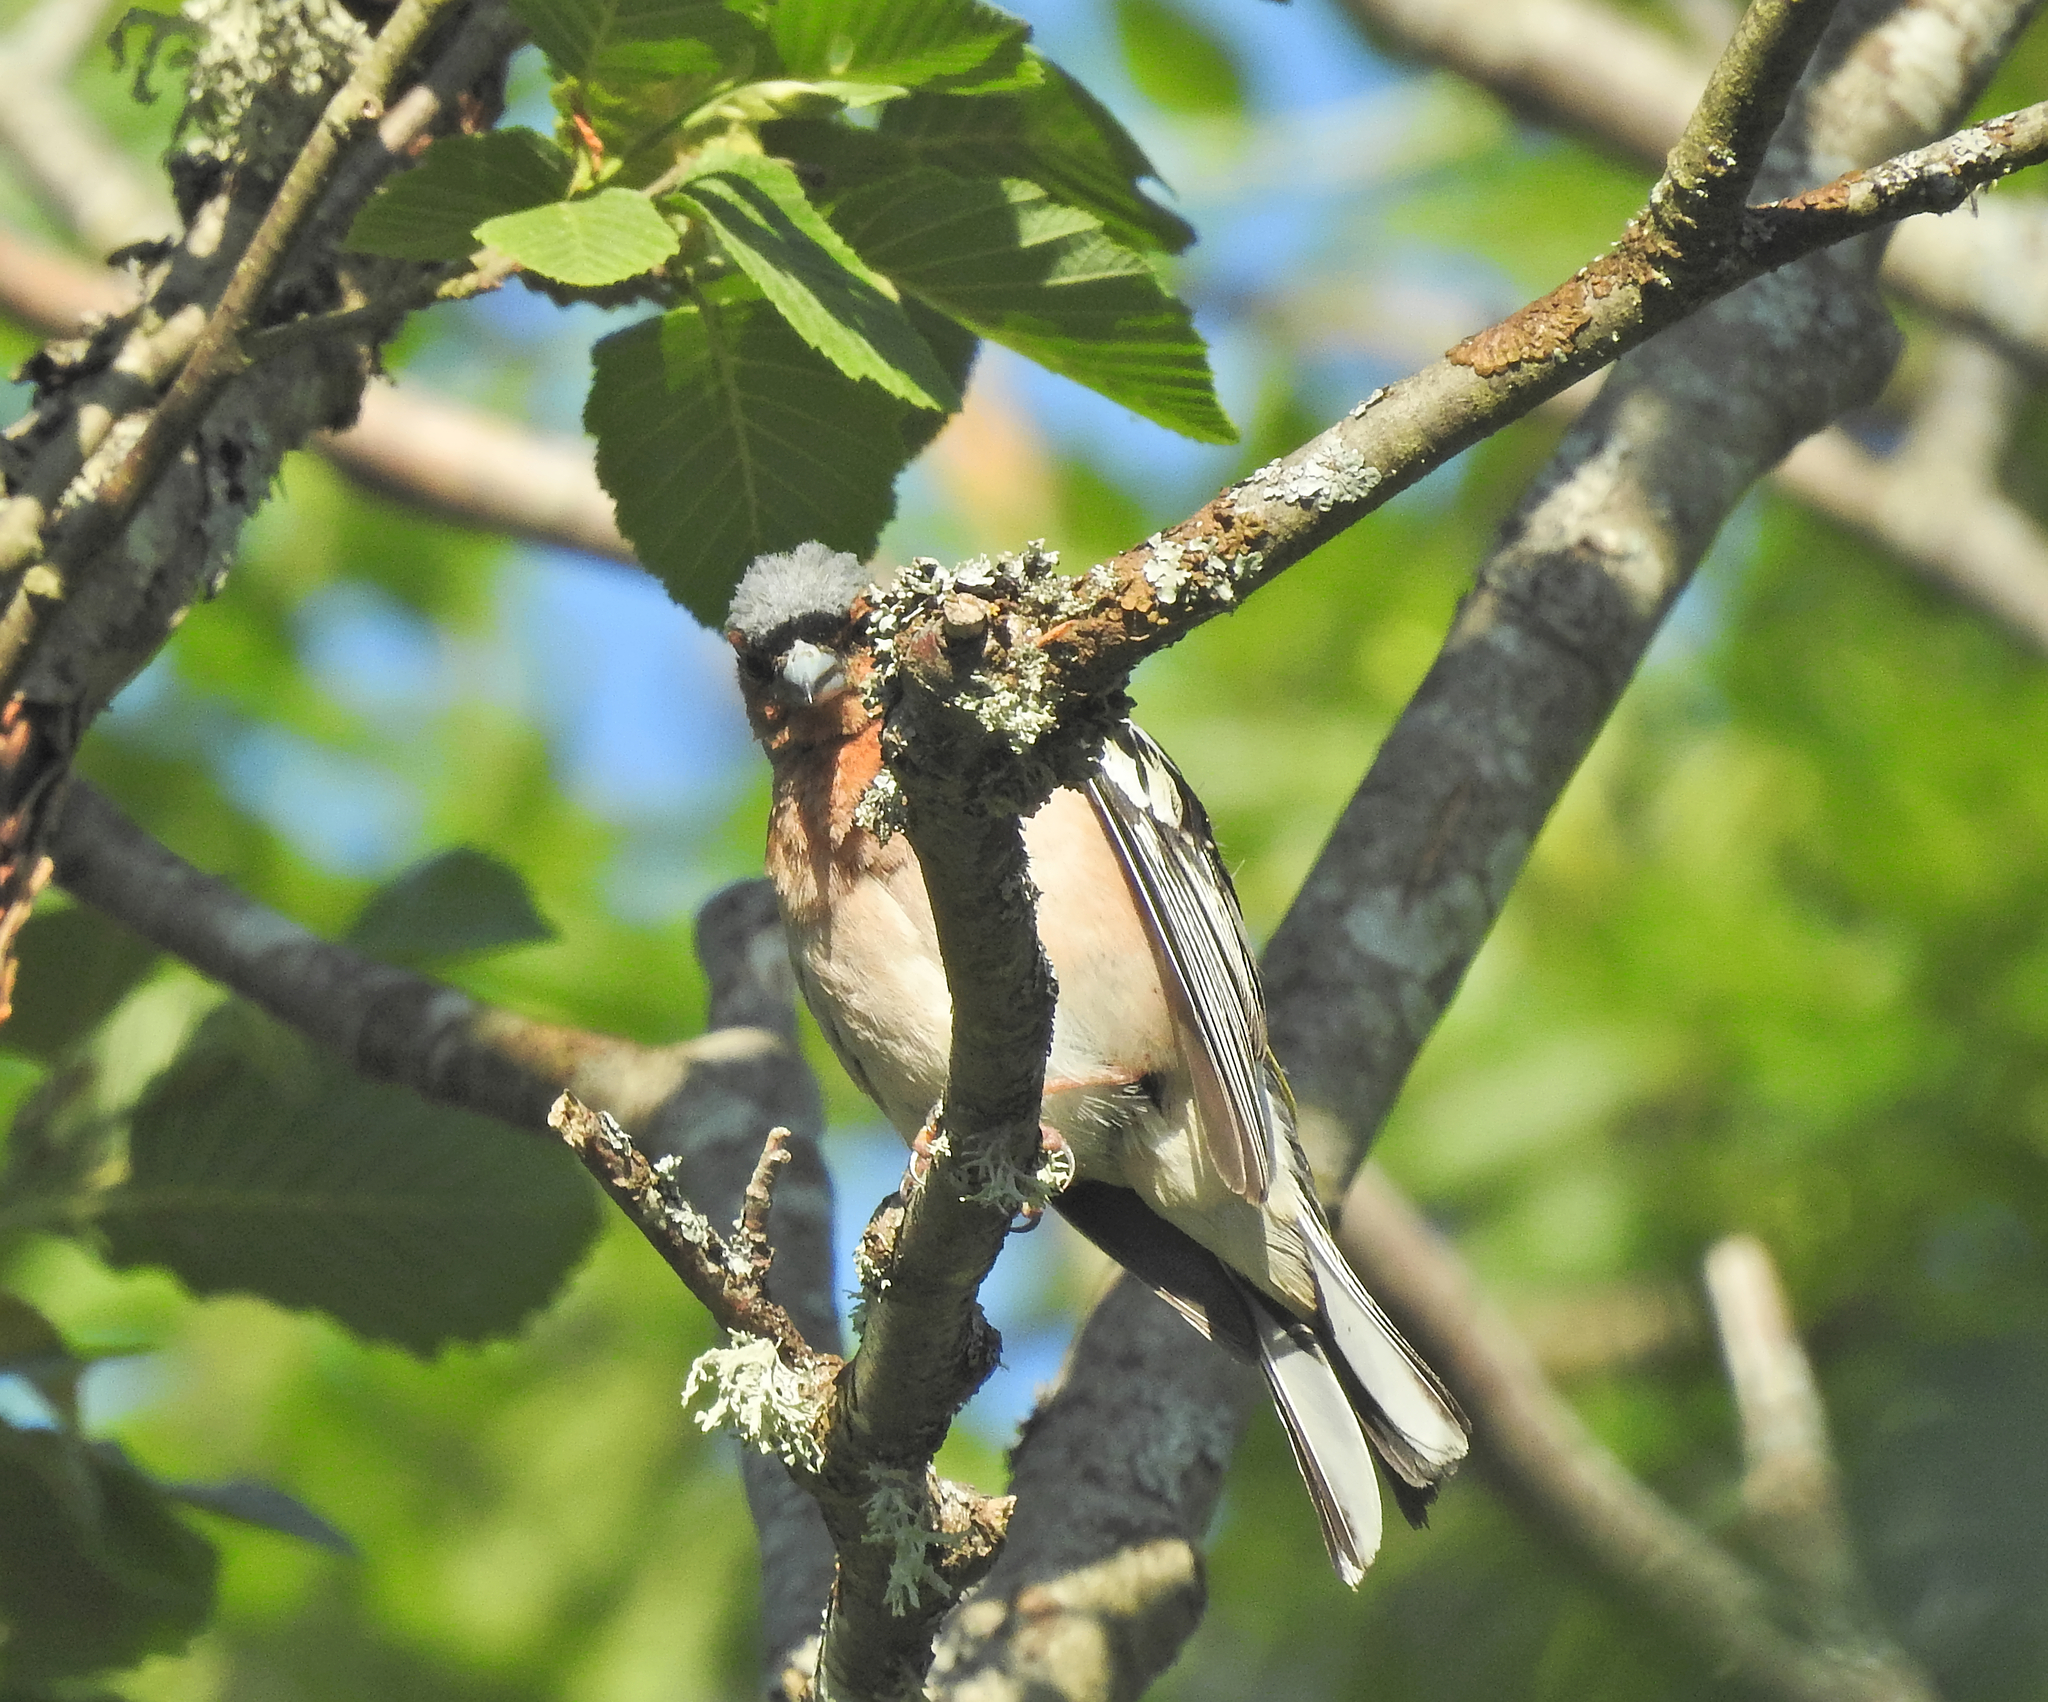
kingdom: Animalia
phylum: Chordata
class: Aves
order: Passeriformes
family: Fringillidae
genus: Fringilla
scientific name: Fringilla coelebs
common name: Common chaffinch
